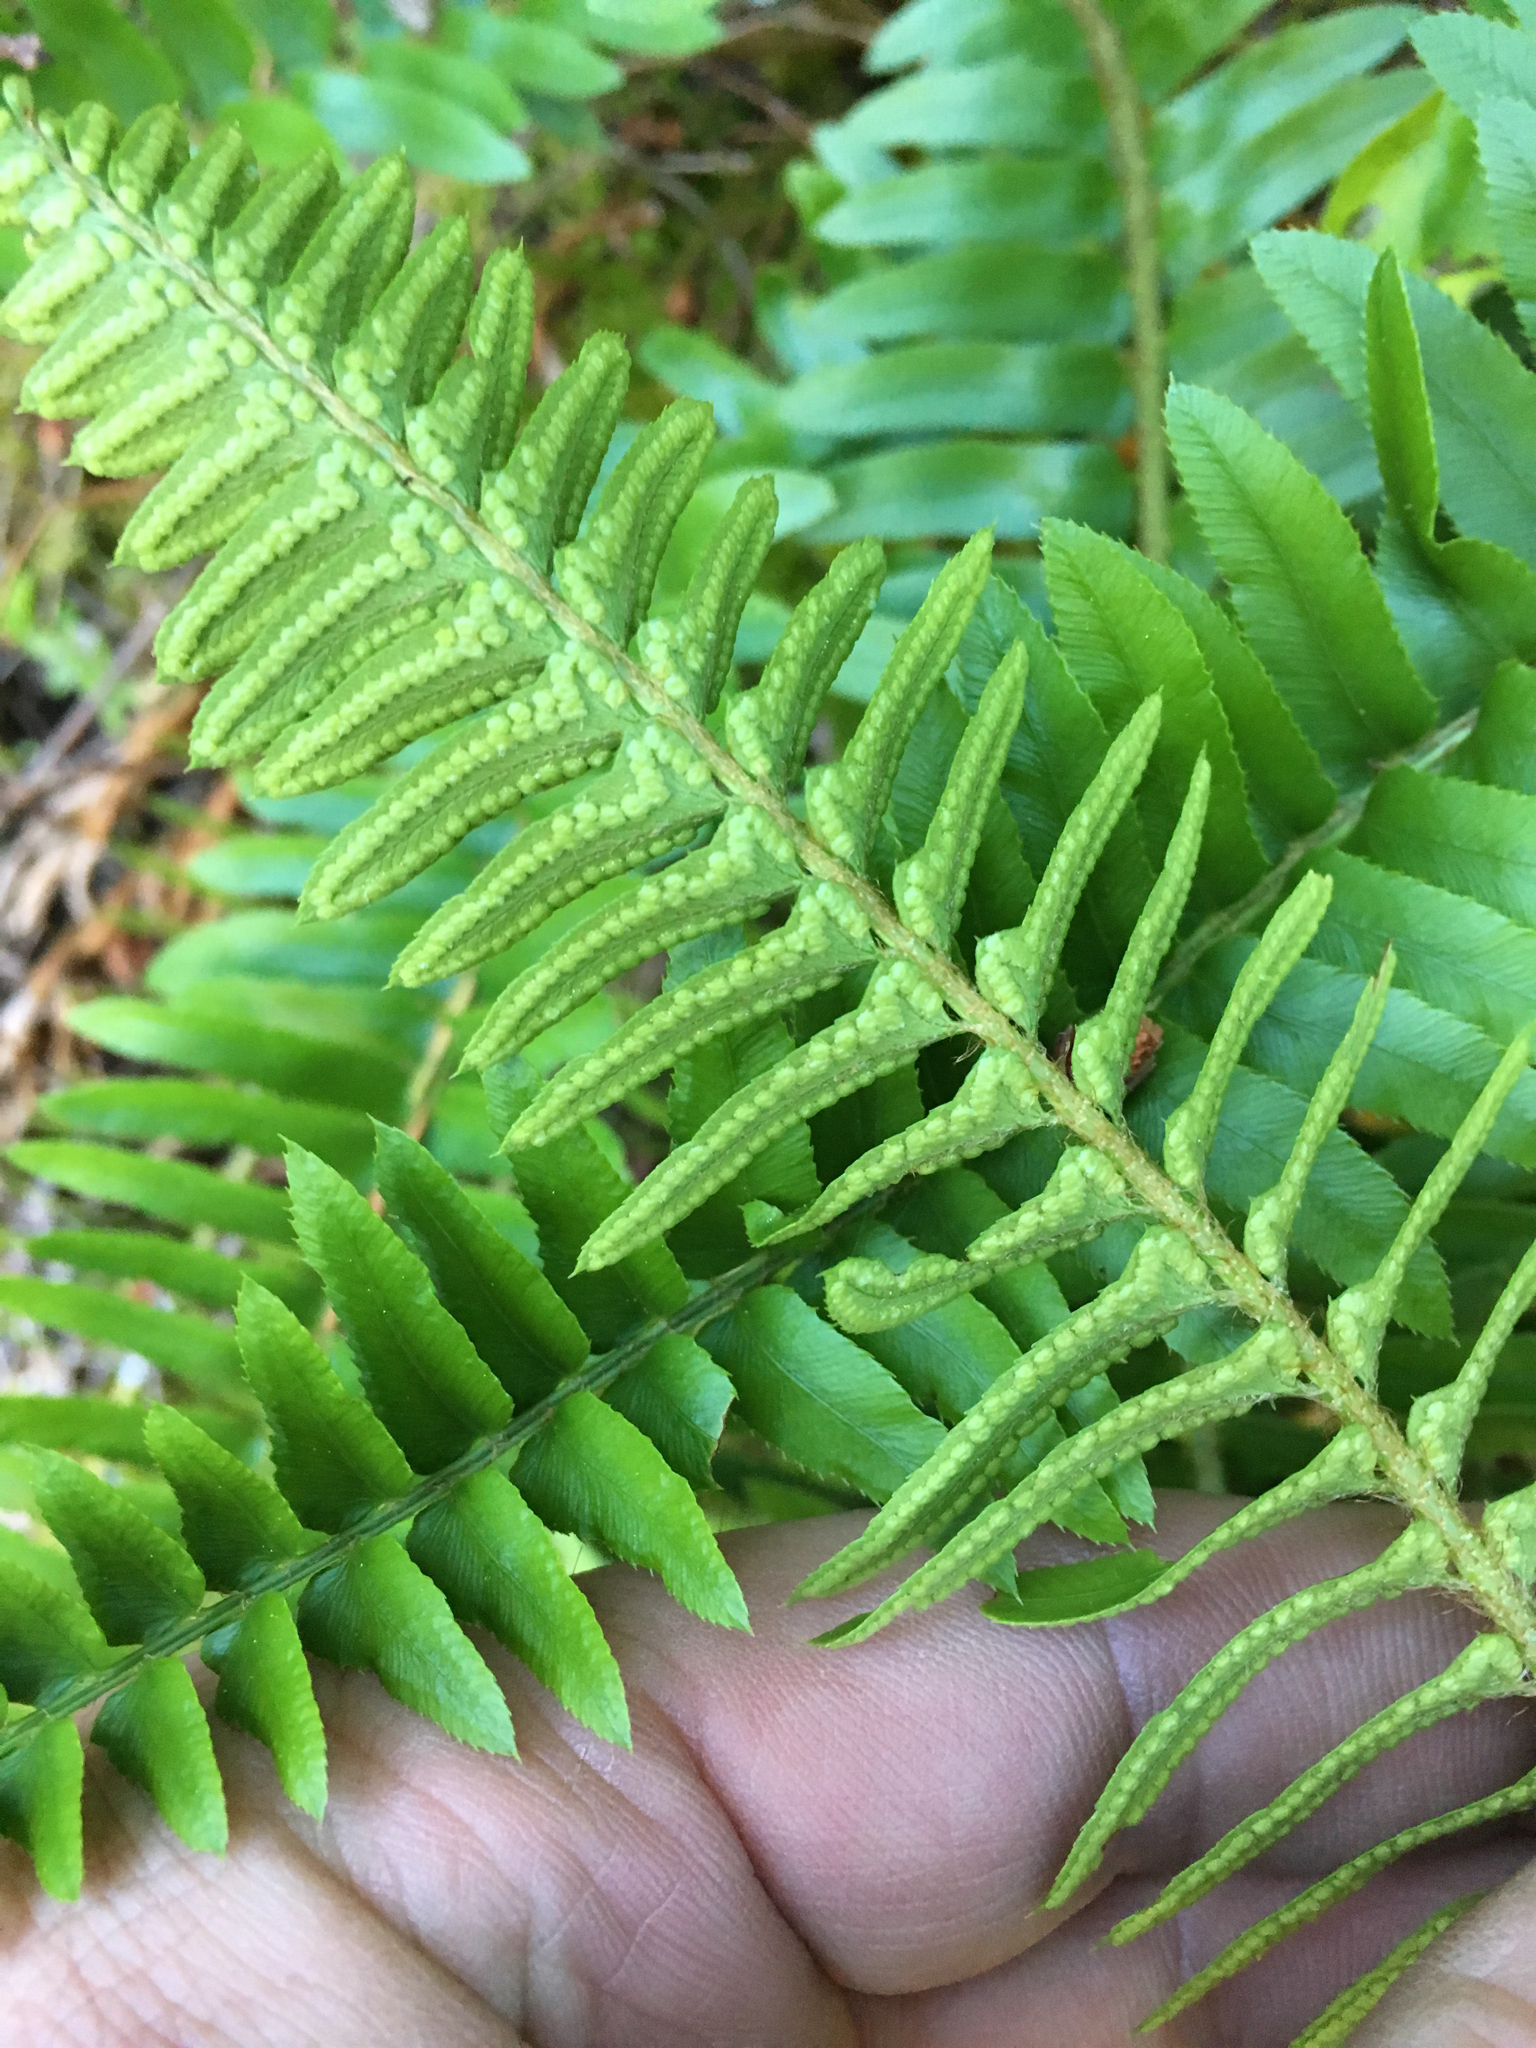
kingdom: Plantae
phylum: Tracheophyta
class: Polypodiopsida
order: Polypodiales
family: Dryopteridaceae
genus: Polystichum
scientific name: Polystichum imbricans
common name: Dwarf western sword fern
